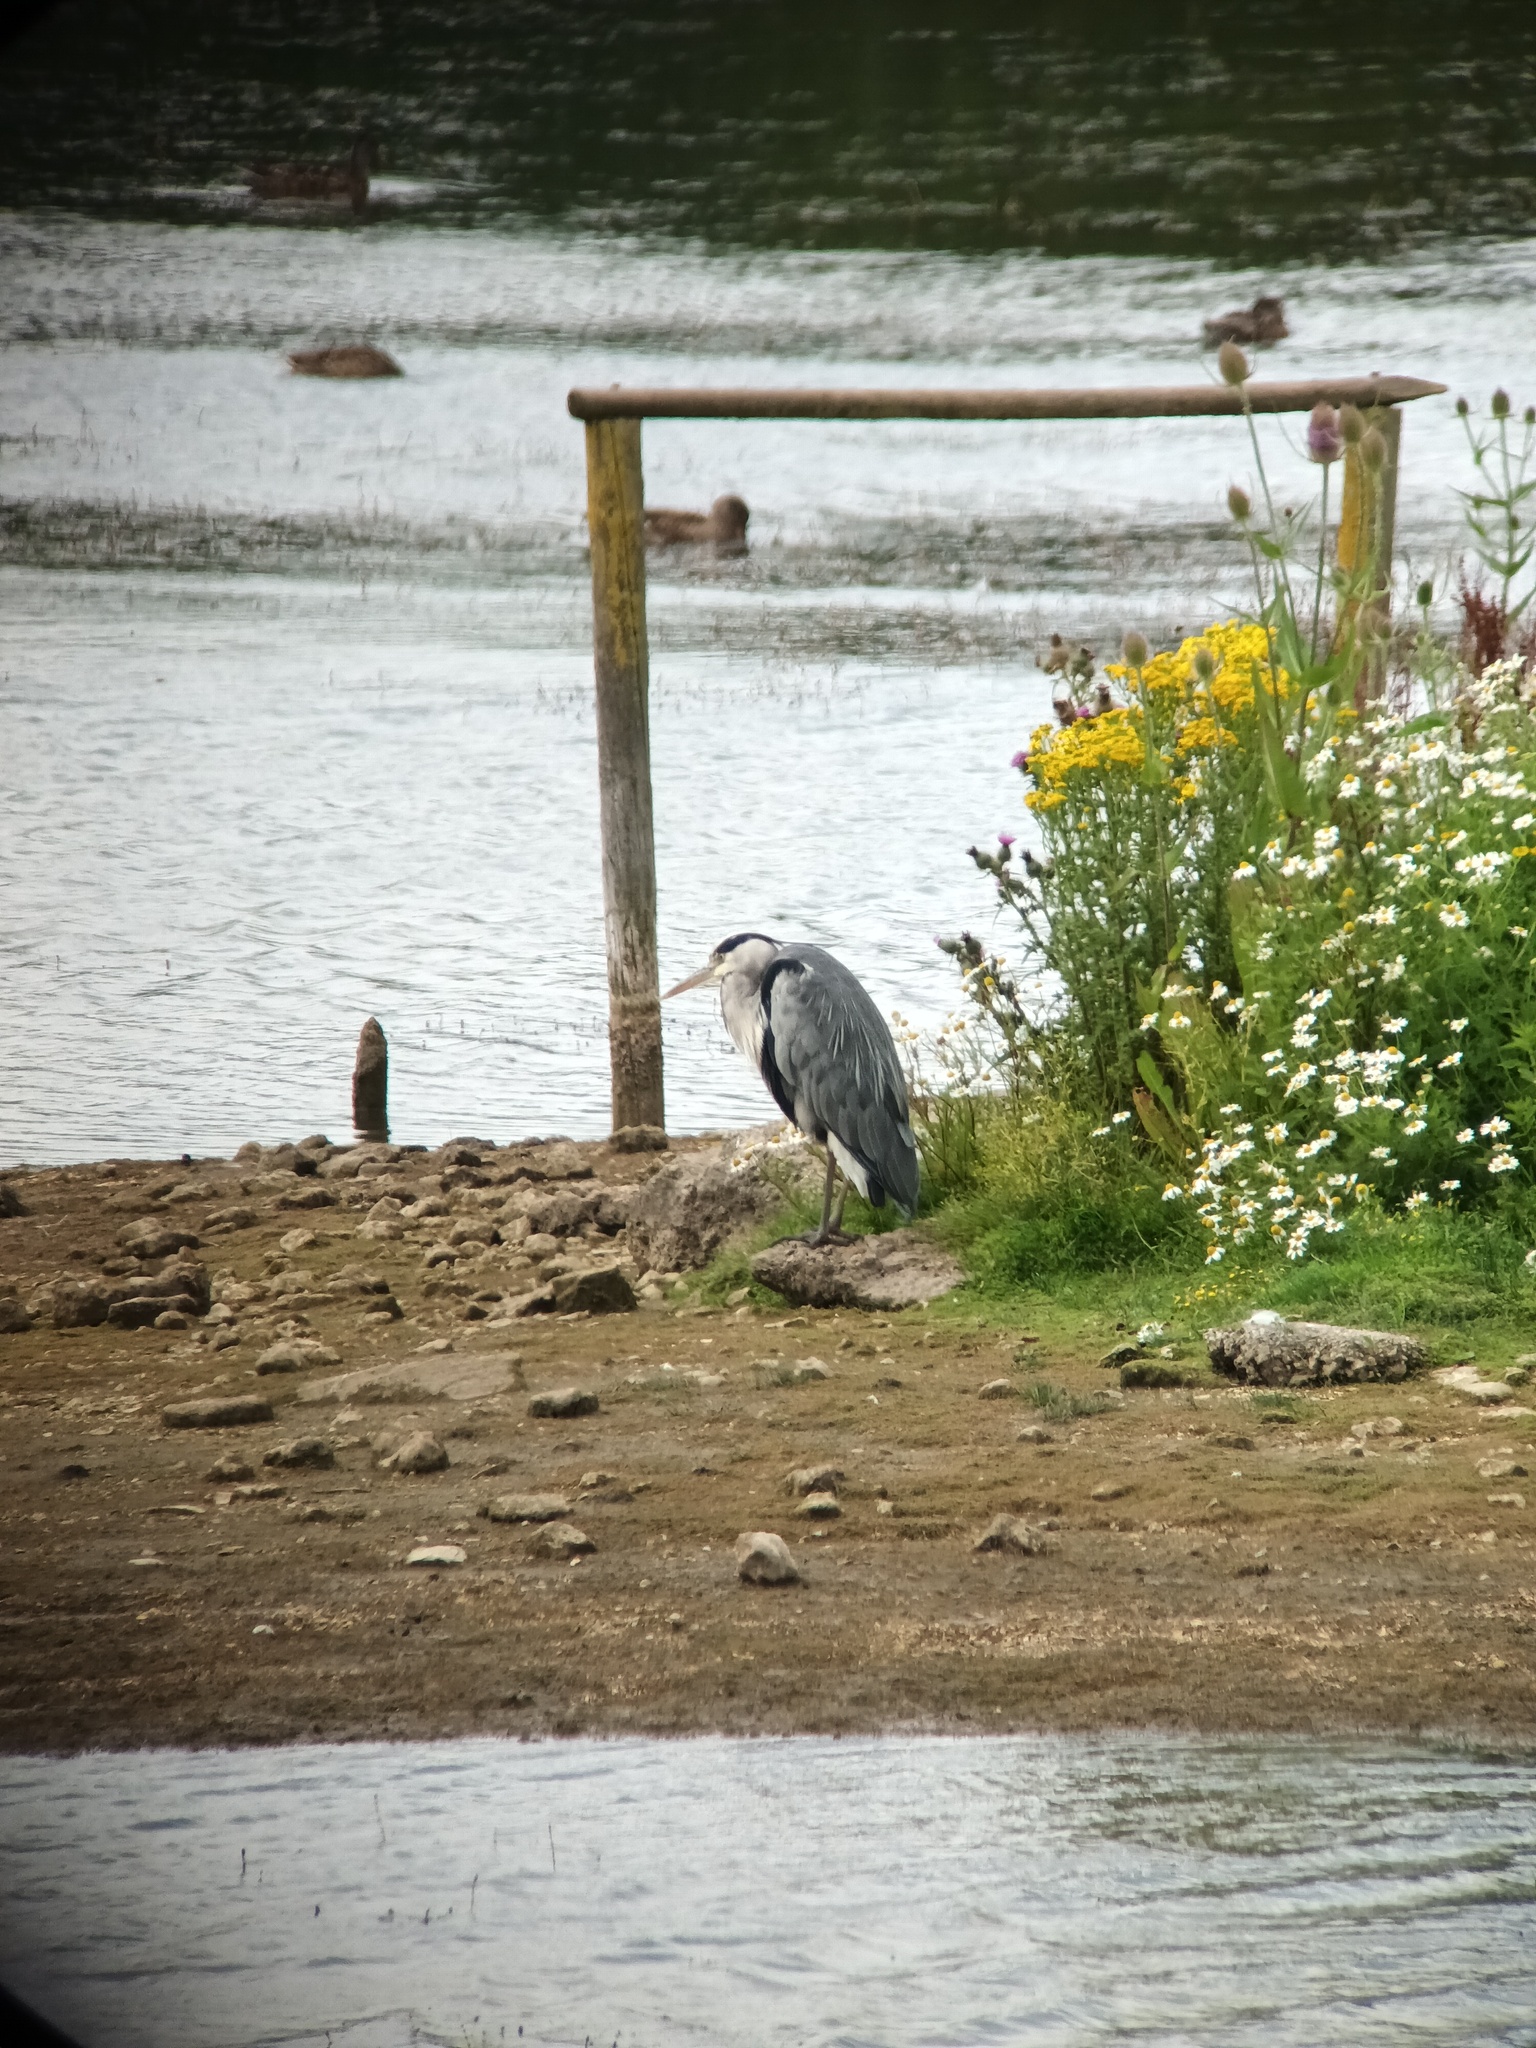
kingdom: Animalia
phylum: Chordata
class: Aves
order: Pelecaniformes
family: Ardeidae
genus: Ardea
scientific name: Ardea cinerea
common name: Grey heron
